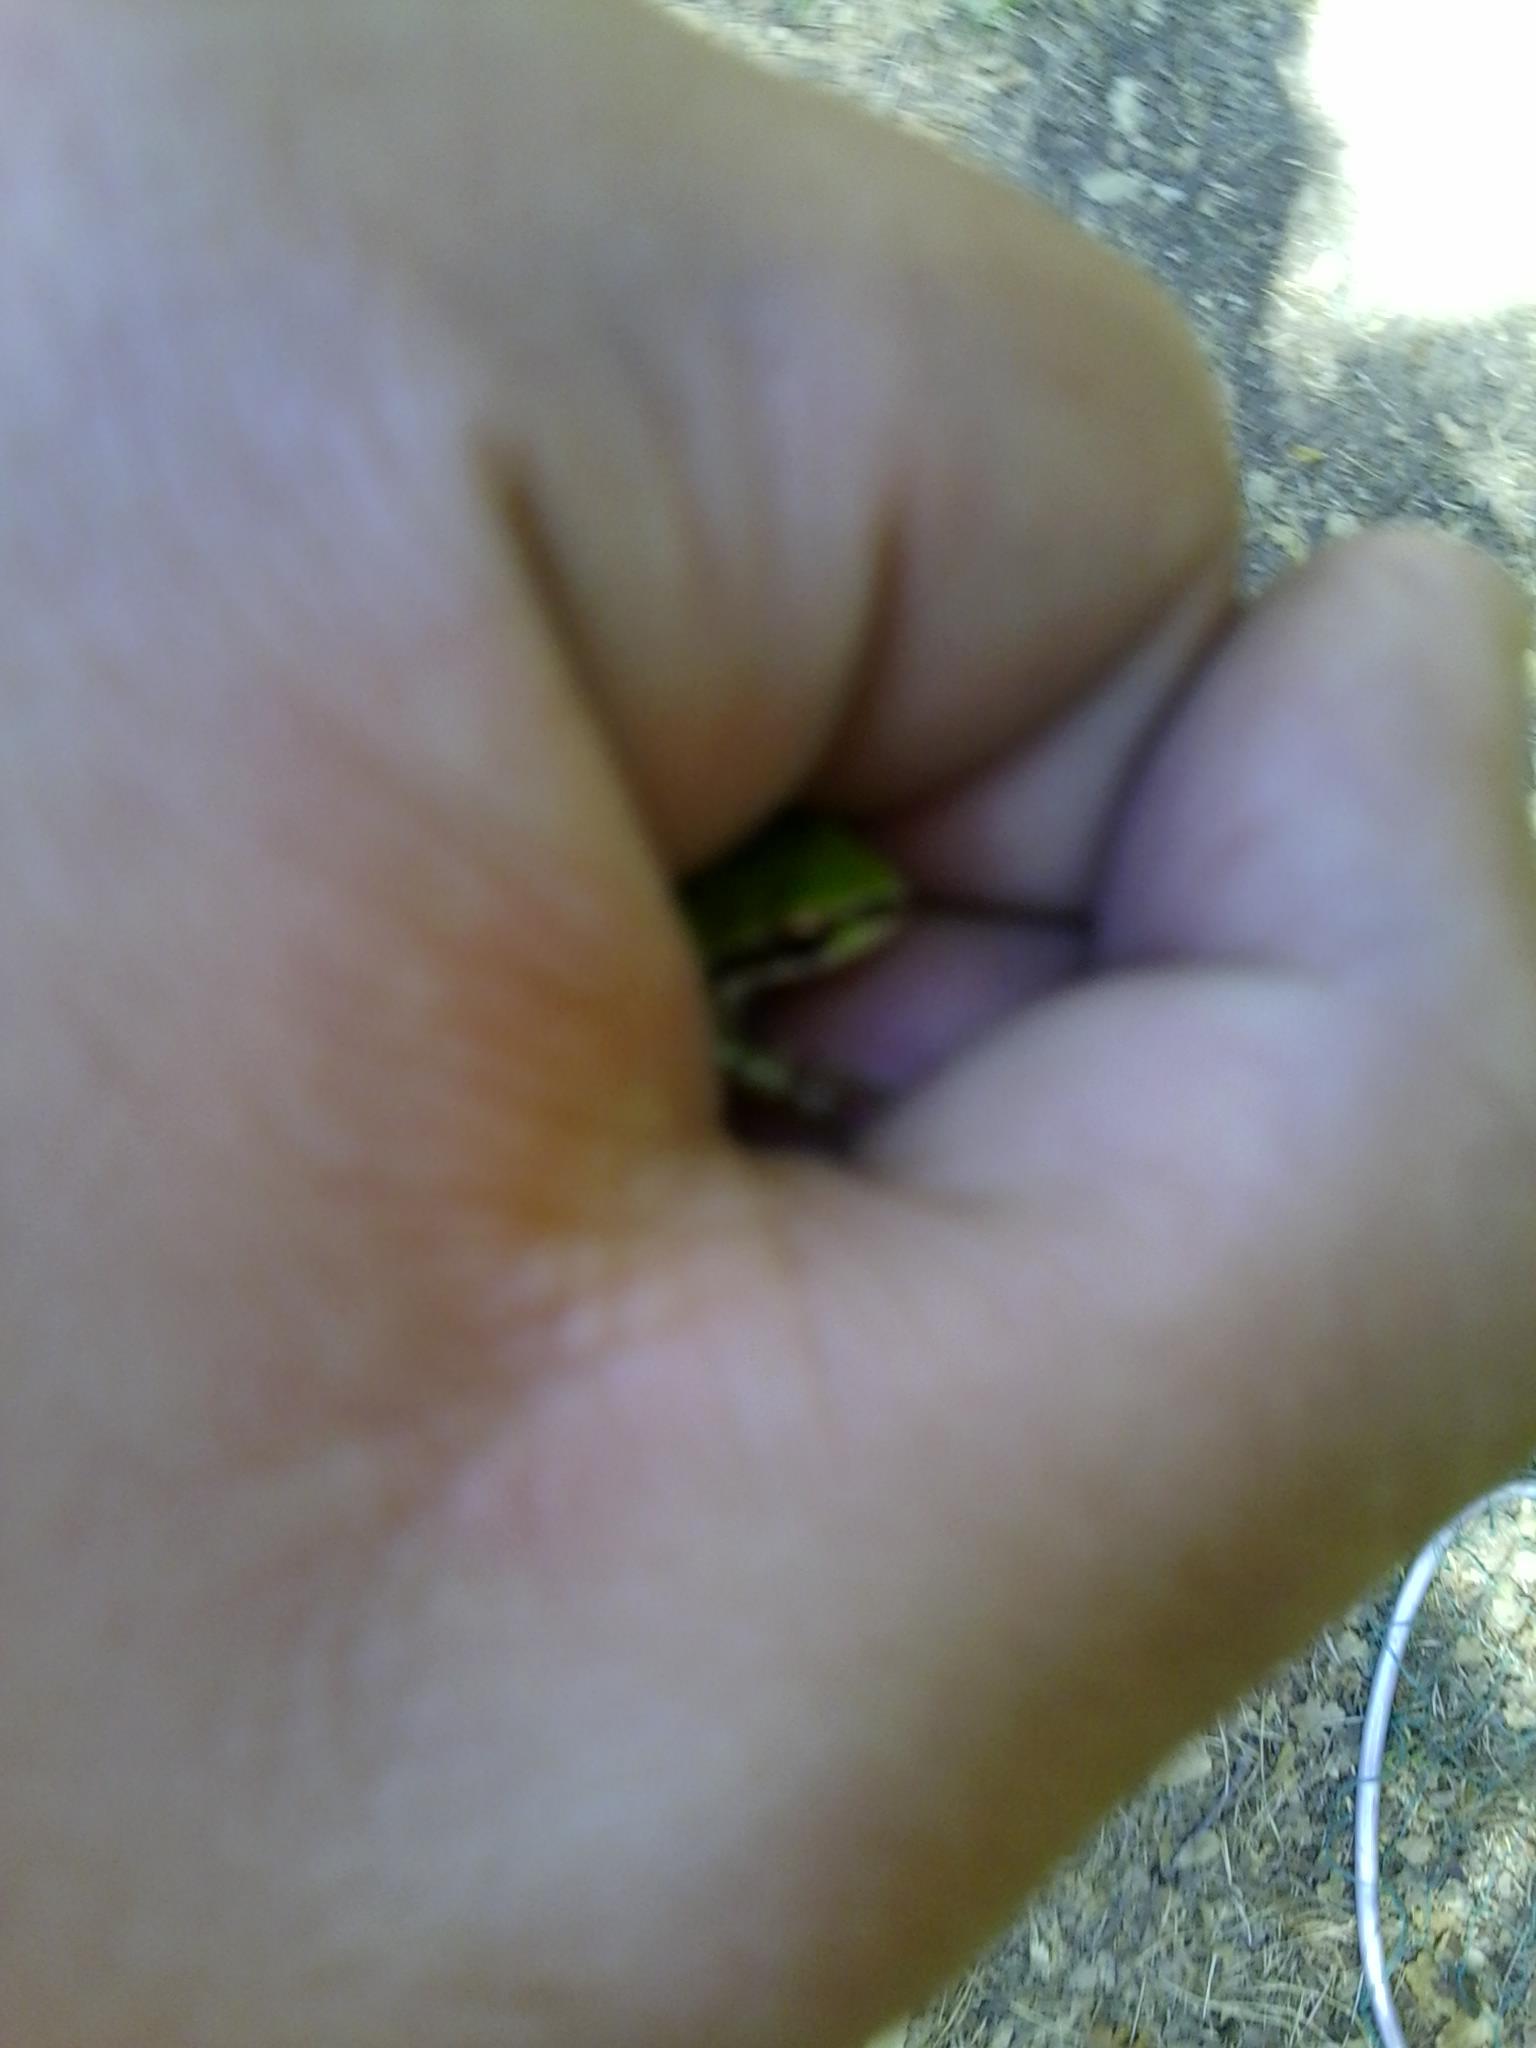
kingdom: Animalia
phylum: Chordata
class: Amphibia
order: Anura
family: Hylidae
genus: Pseudacris
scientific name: Pseudacris regilla
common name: Pacific chorus frog
